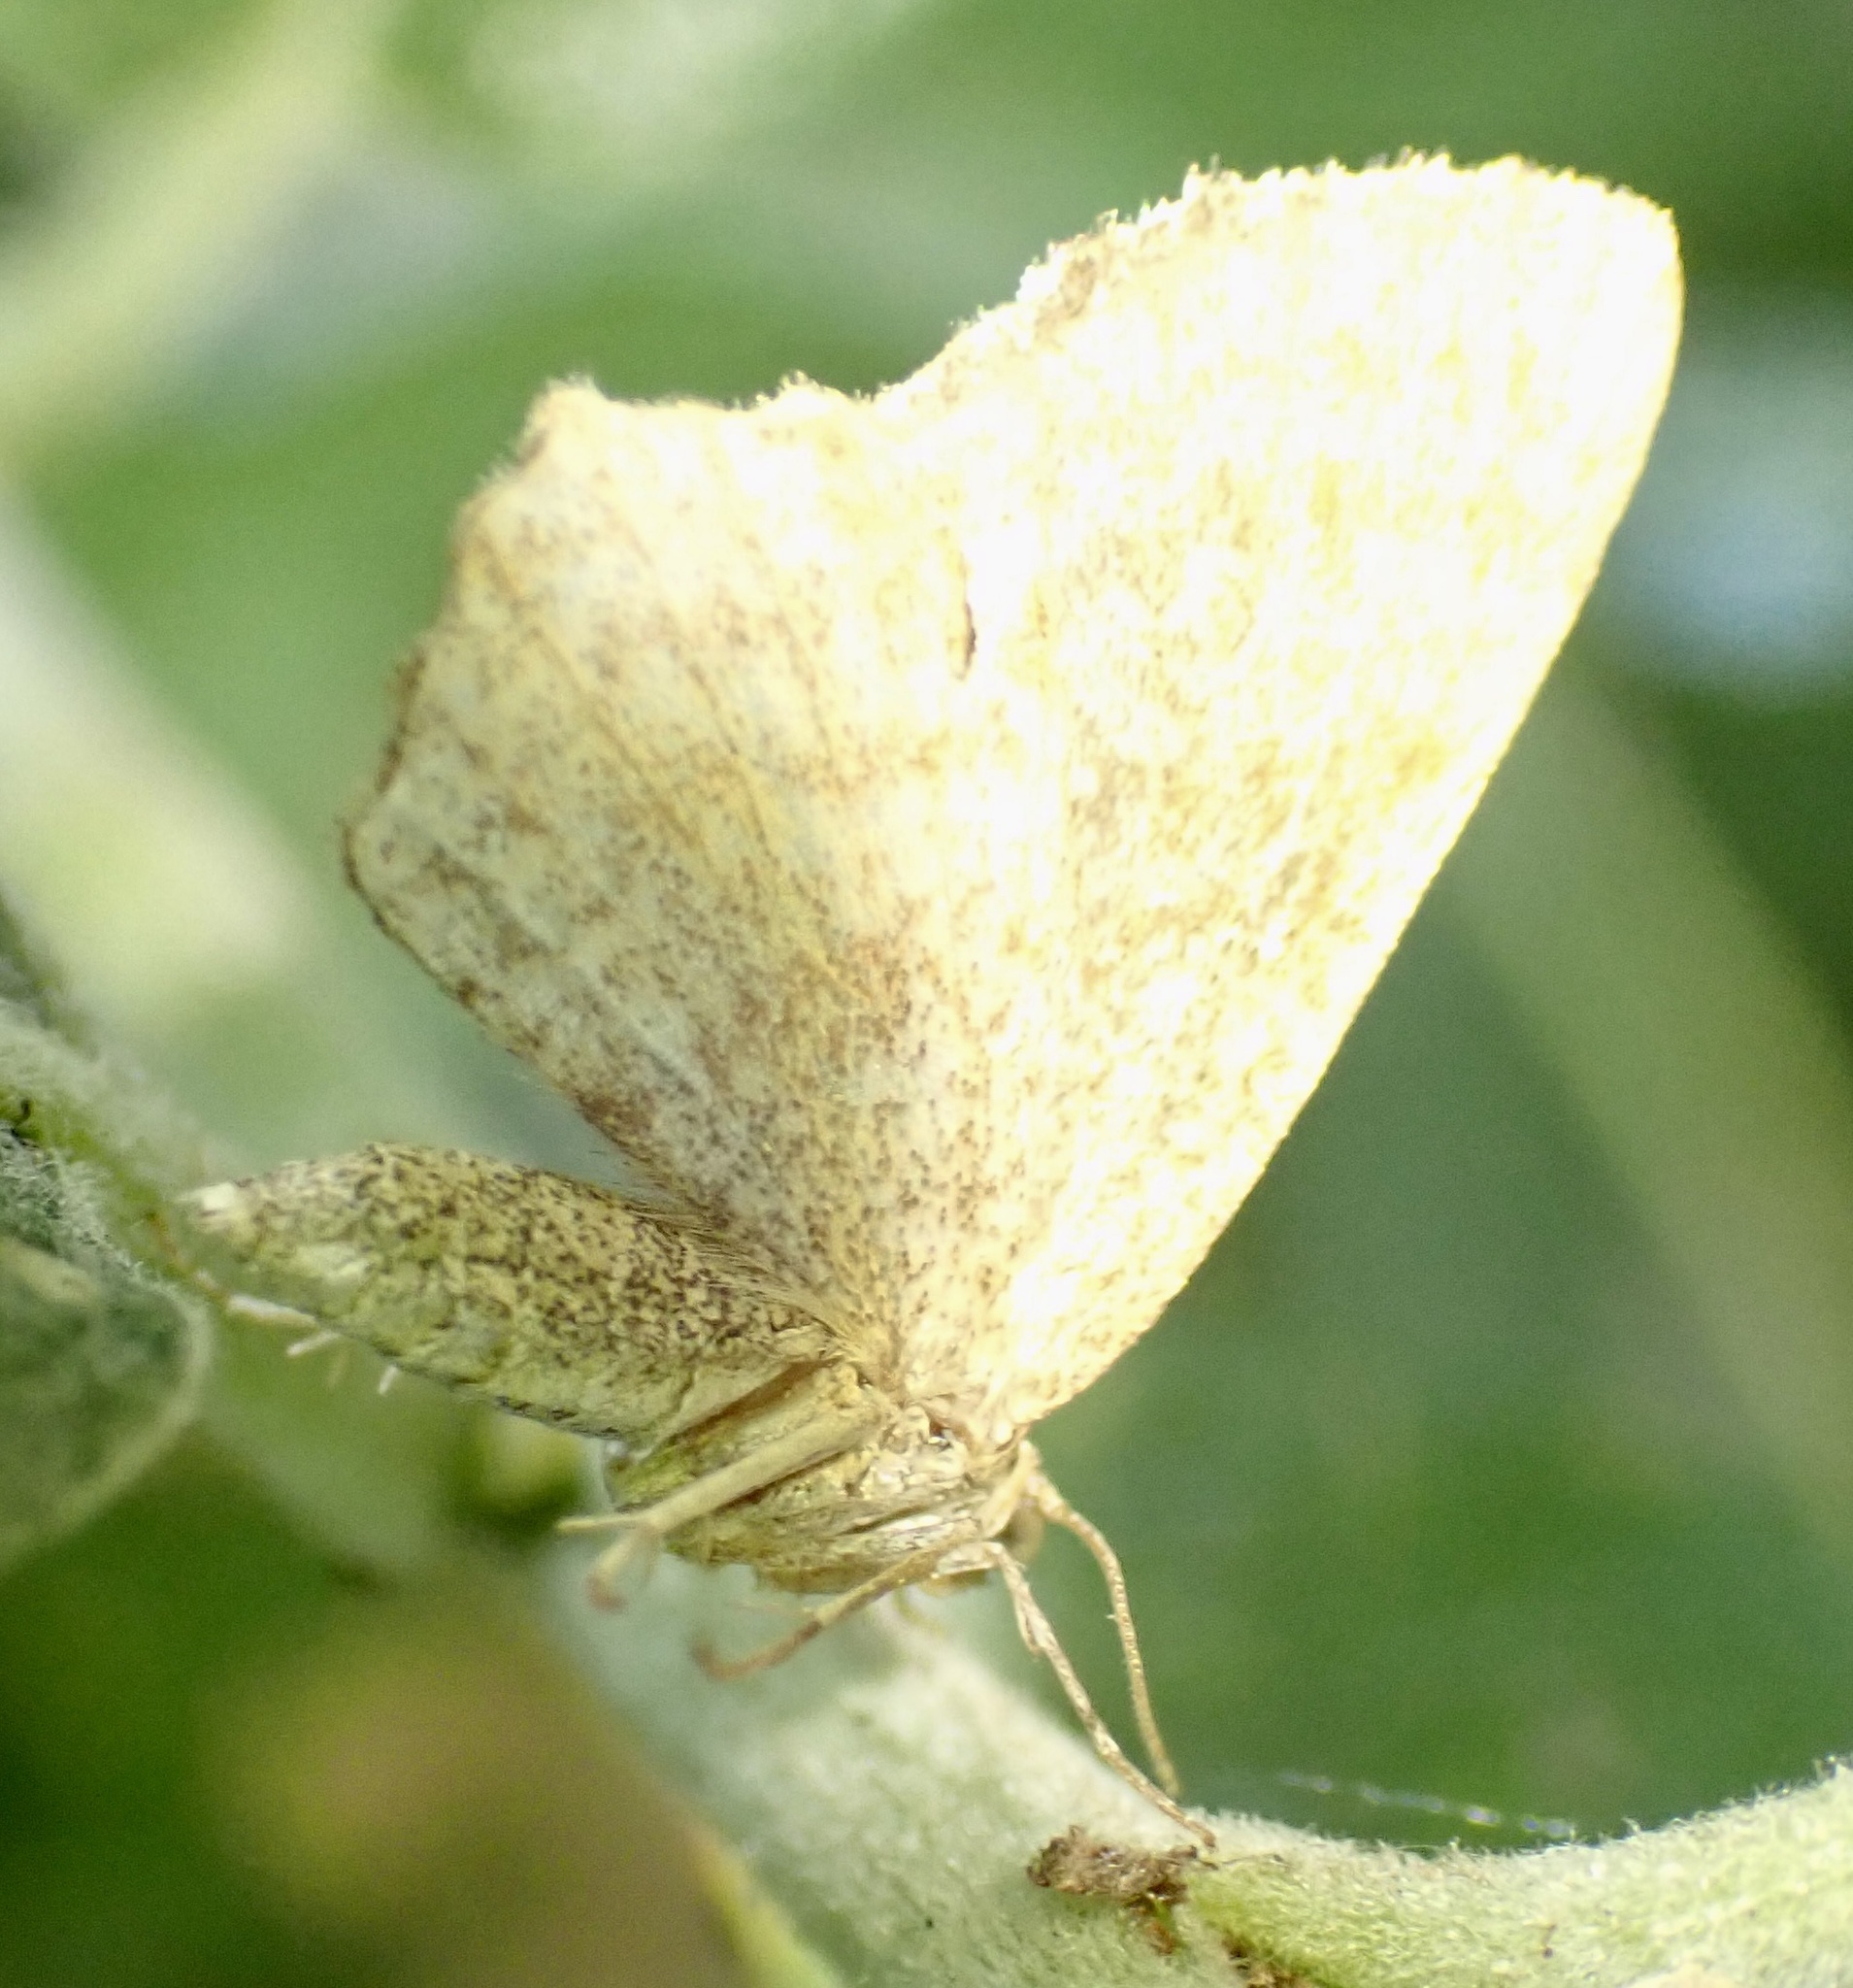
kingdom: Animalia
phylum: Arthropoda
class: Insecta
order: Lepidoptera
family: Geometridae
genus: Euchoeca
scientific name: Euchoeca nebulata
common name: Dingy shell
